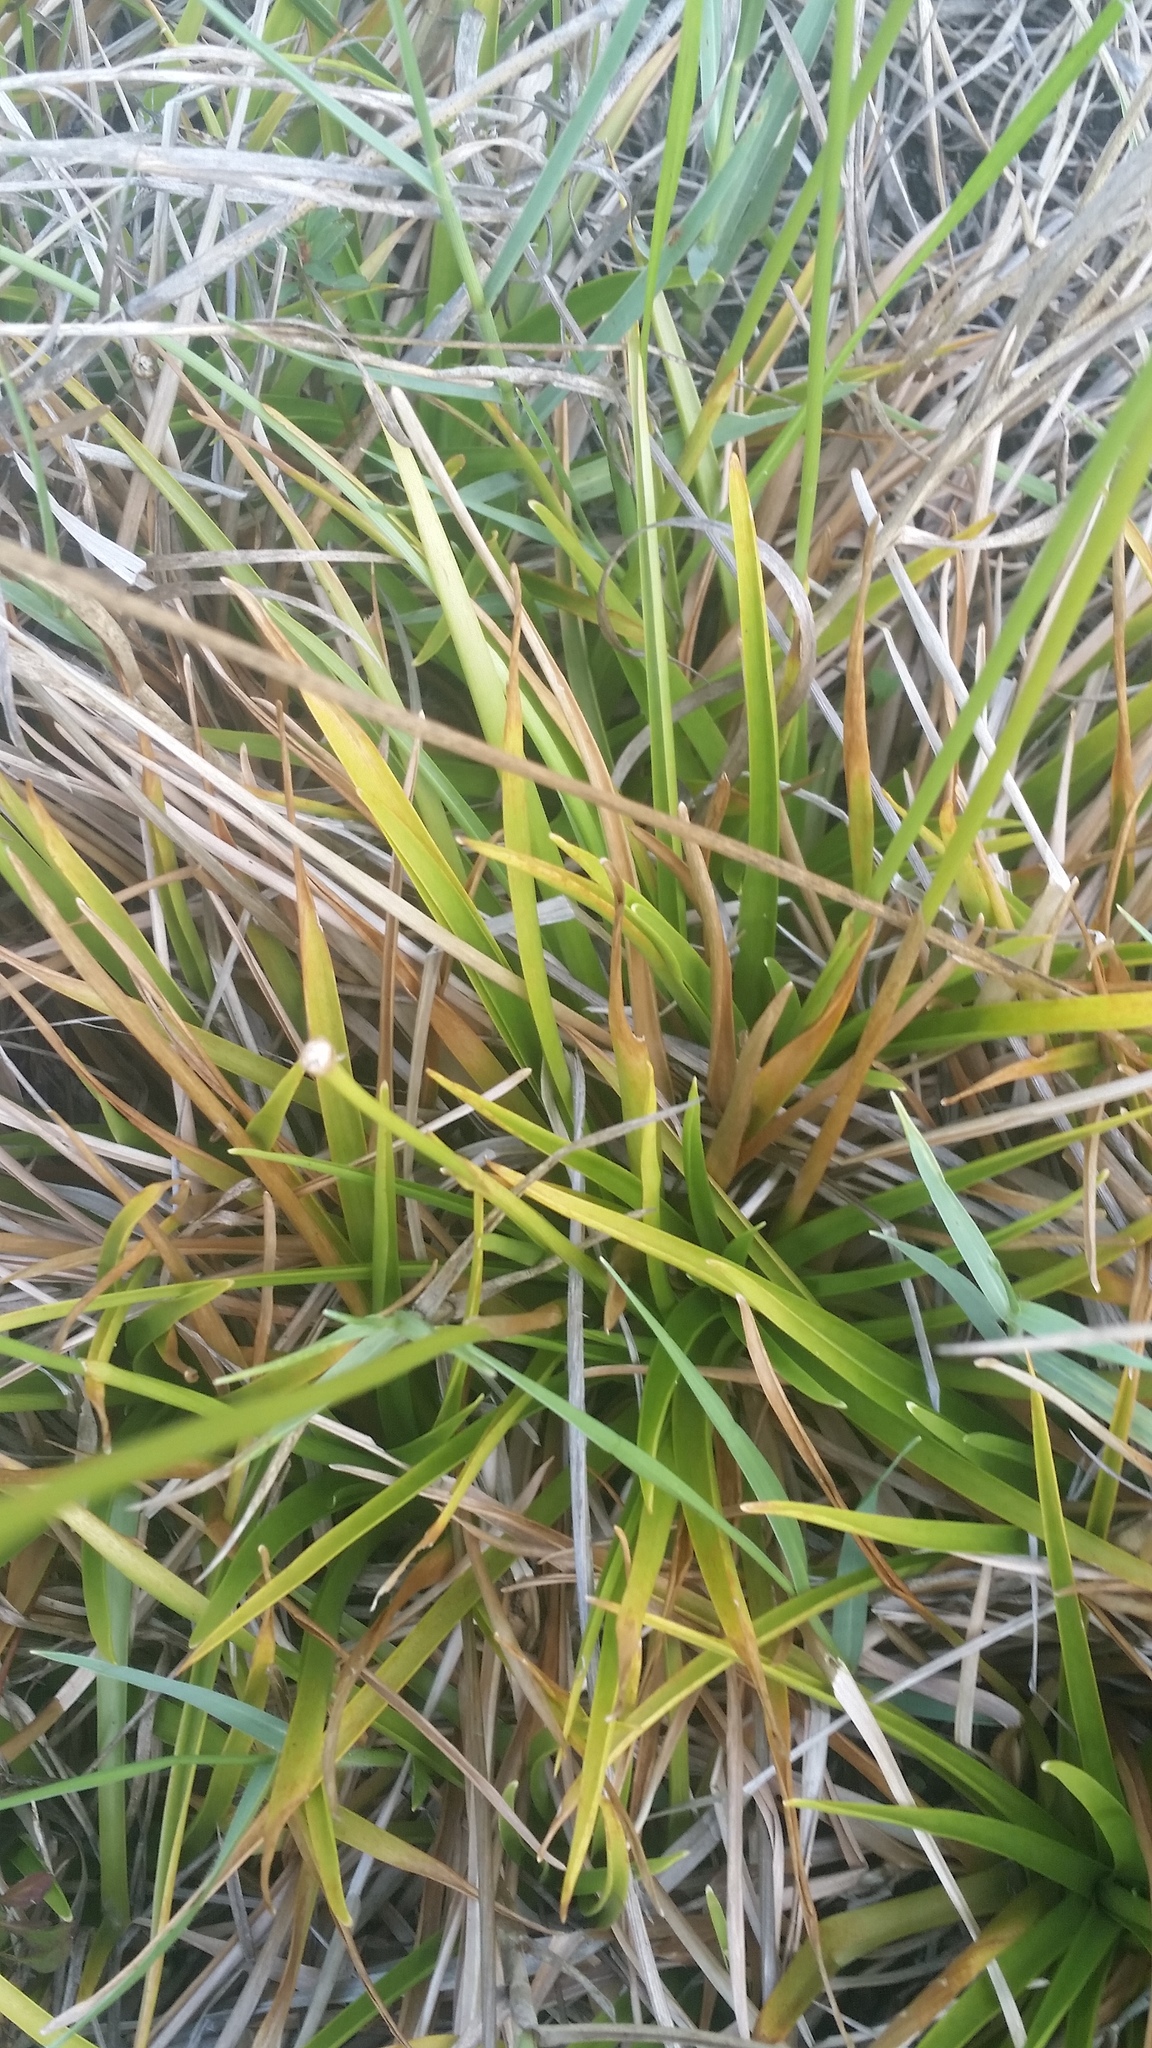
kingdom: Plantae
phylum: Tracheophyta
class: Liliopsida
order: Poales
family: Eriocaulaceae
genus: Eriocaulon
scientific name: Eriocaulon decangulare
